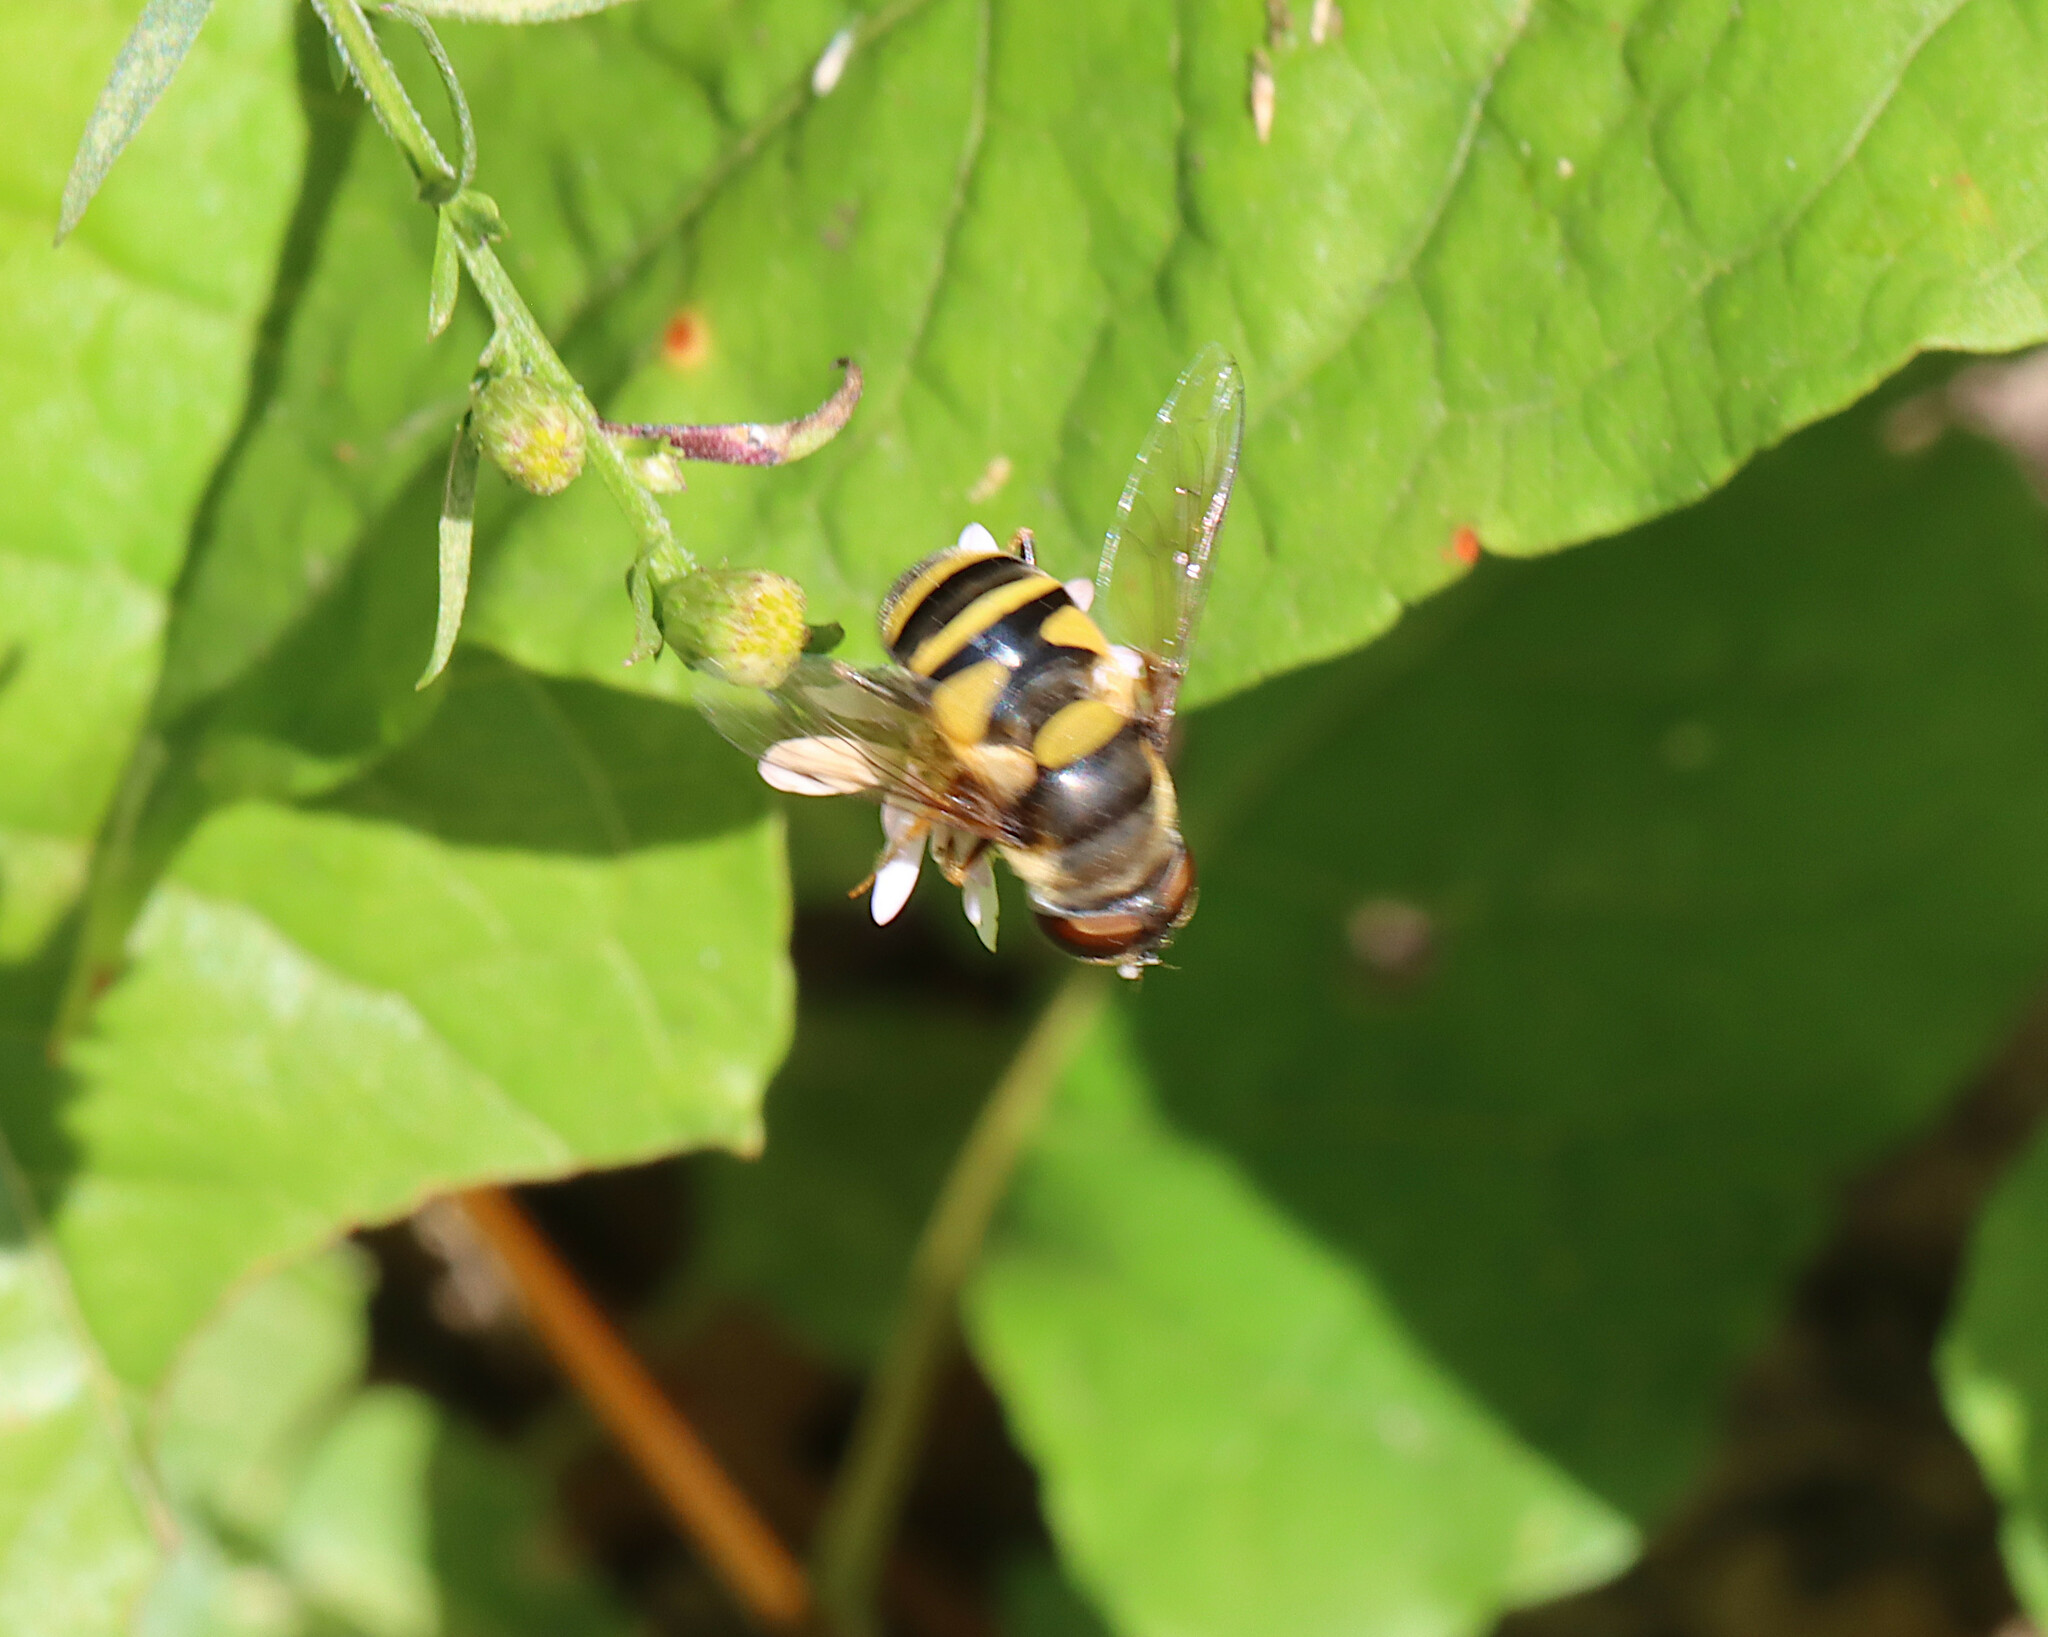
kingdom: Animalia
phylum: Arthropoda
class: Insecta
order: Diptera
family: Syrphidae
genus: Eristalis
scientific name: Eristalis transversa
